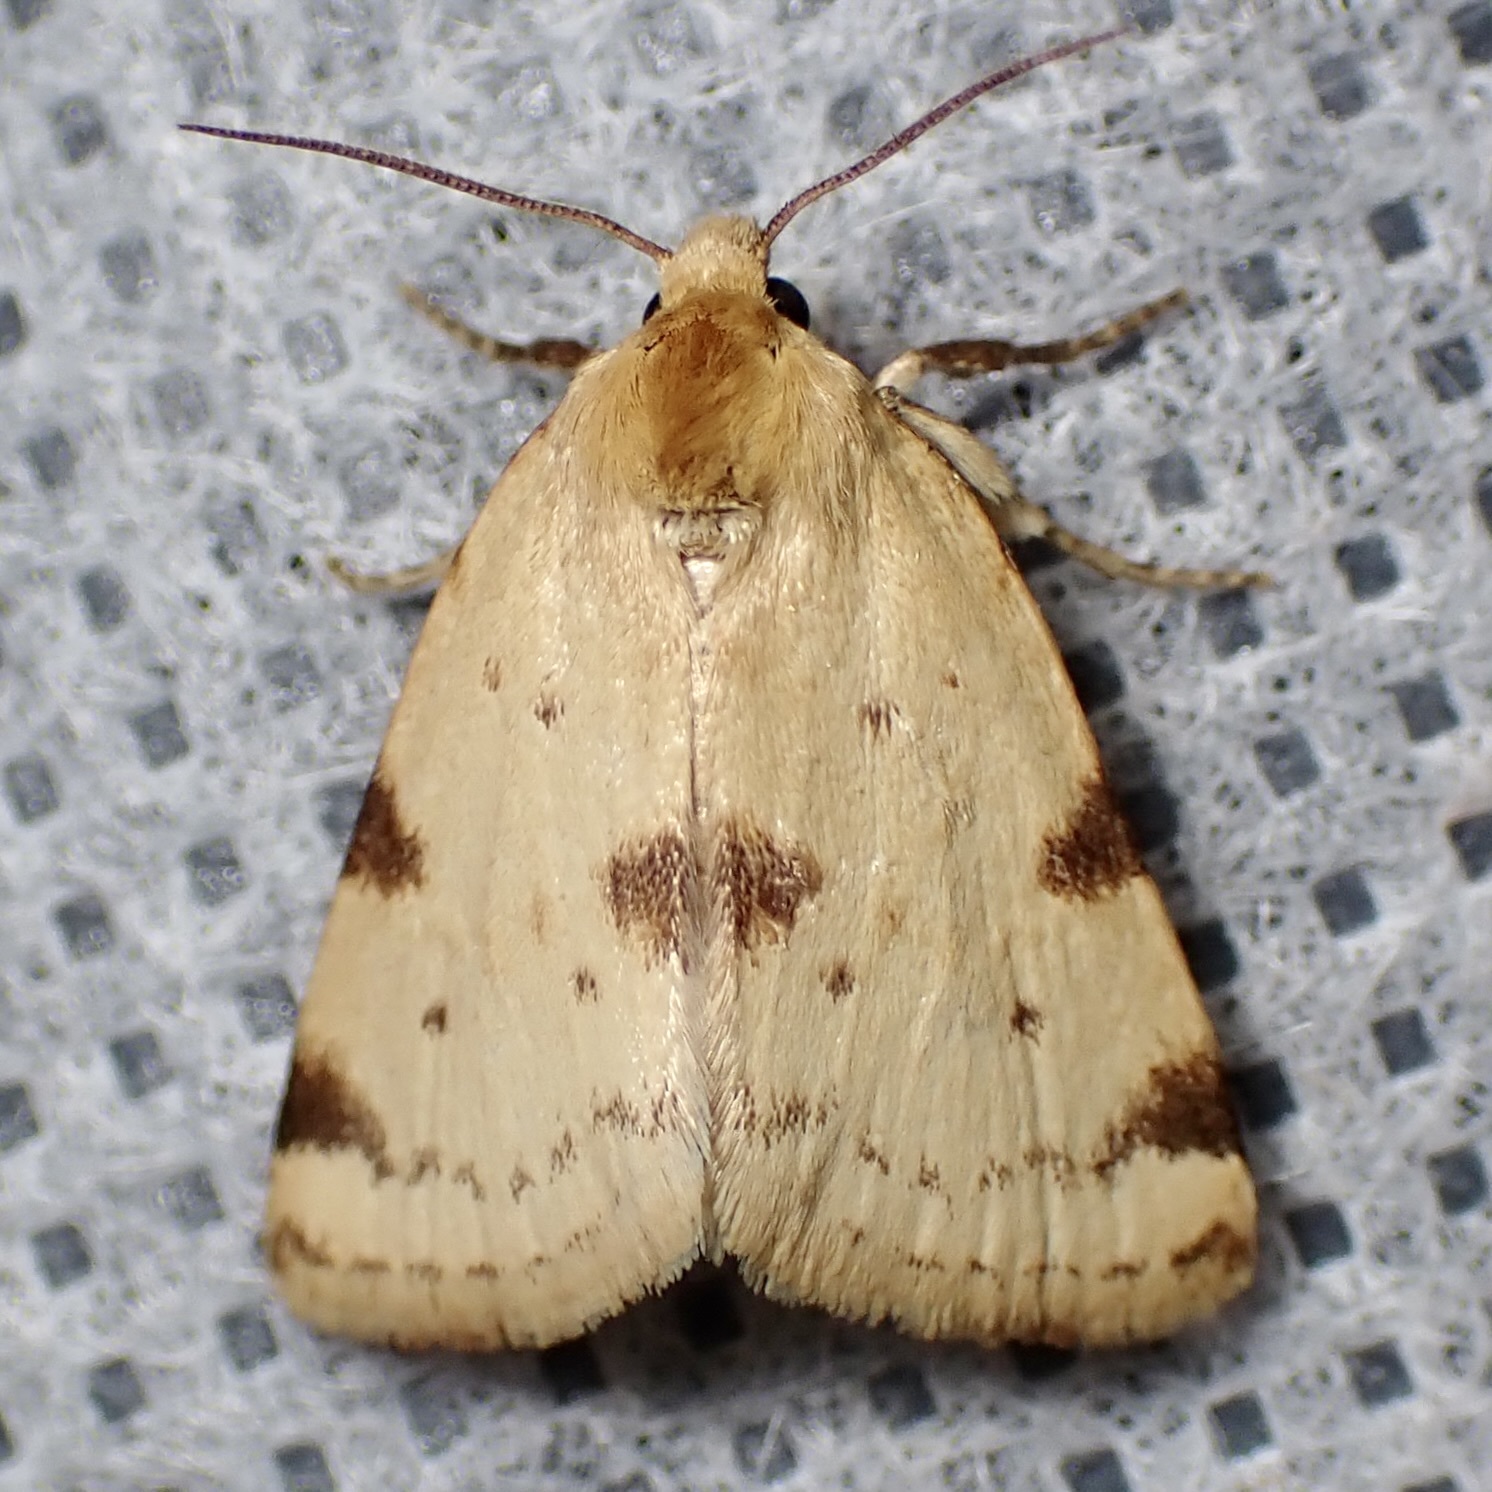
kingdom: Animalia
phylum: Arthropoda
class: Insecta
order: Lepidoptera
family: Noctuidae
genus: Azenia
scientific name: Azenia edentata
